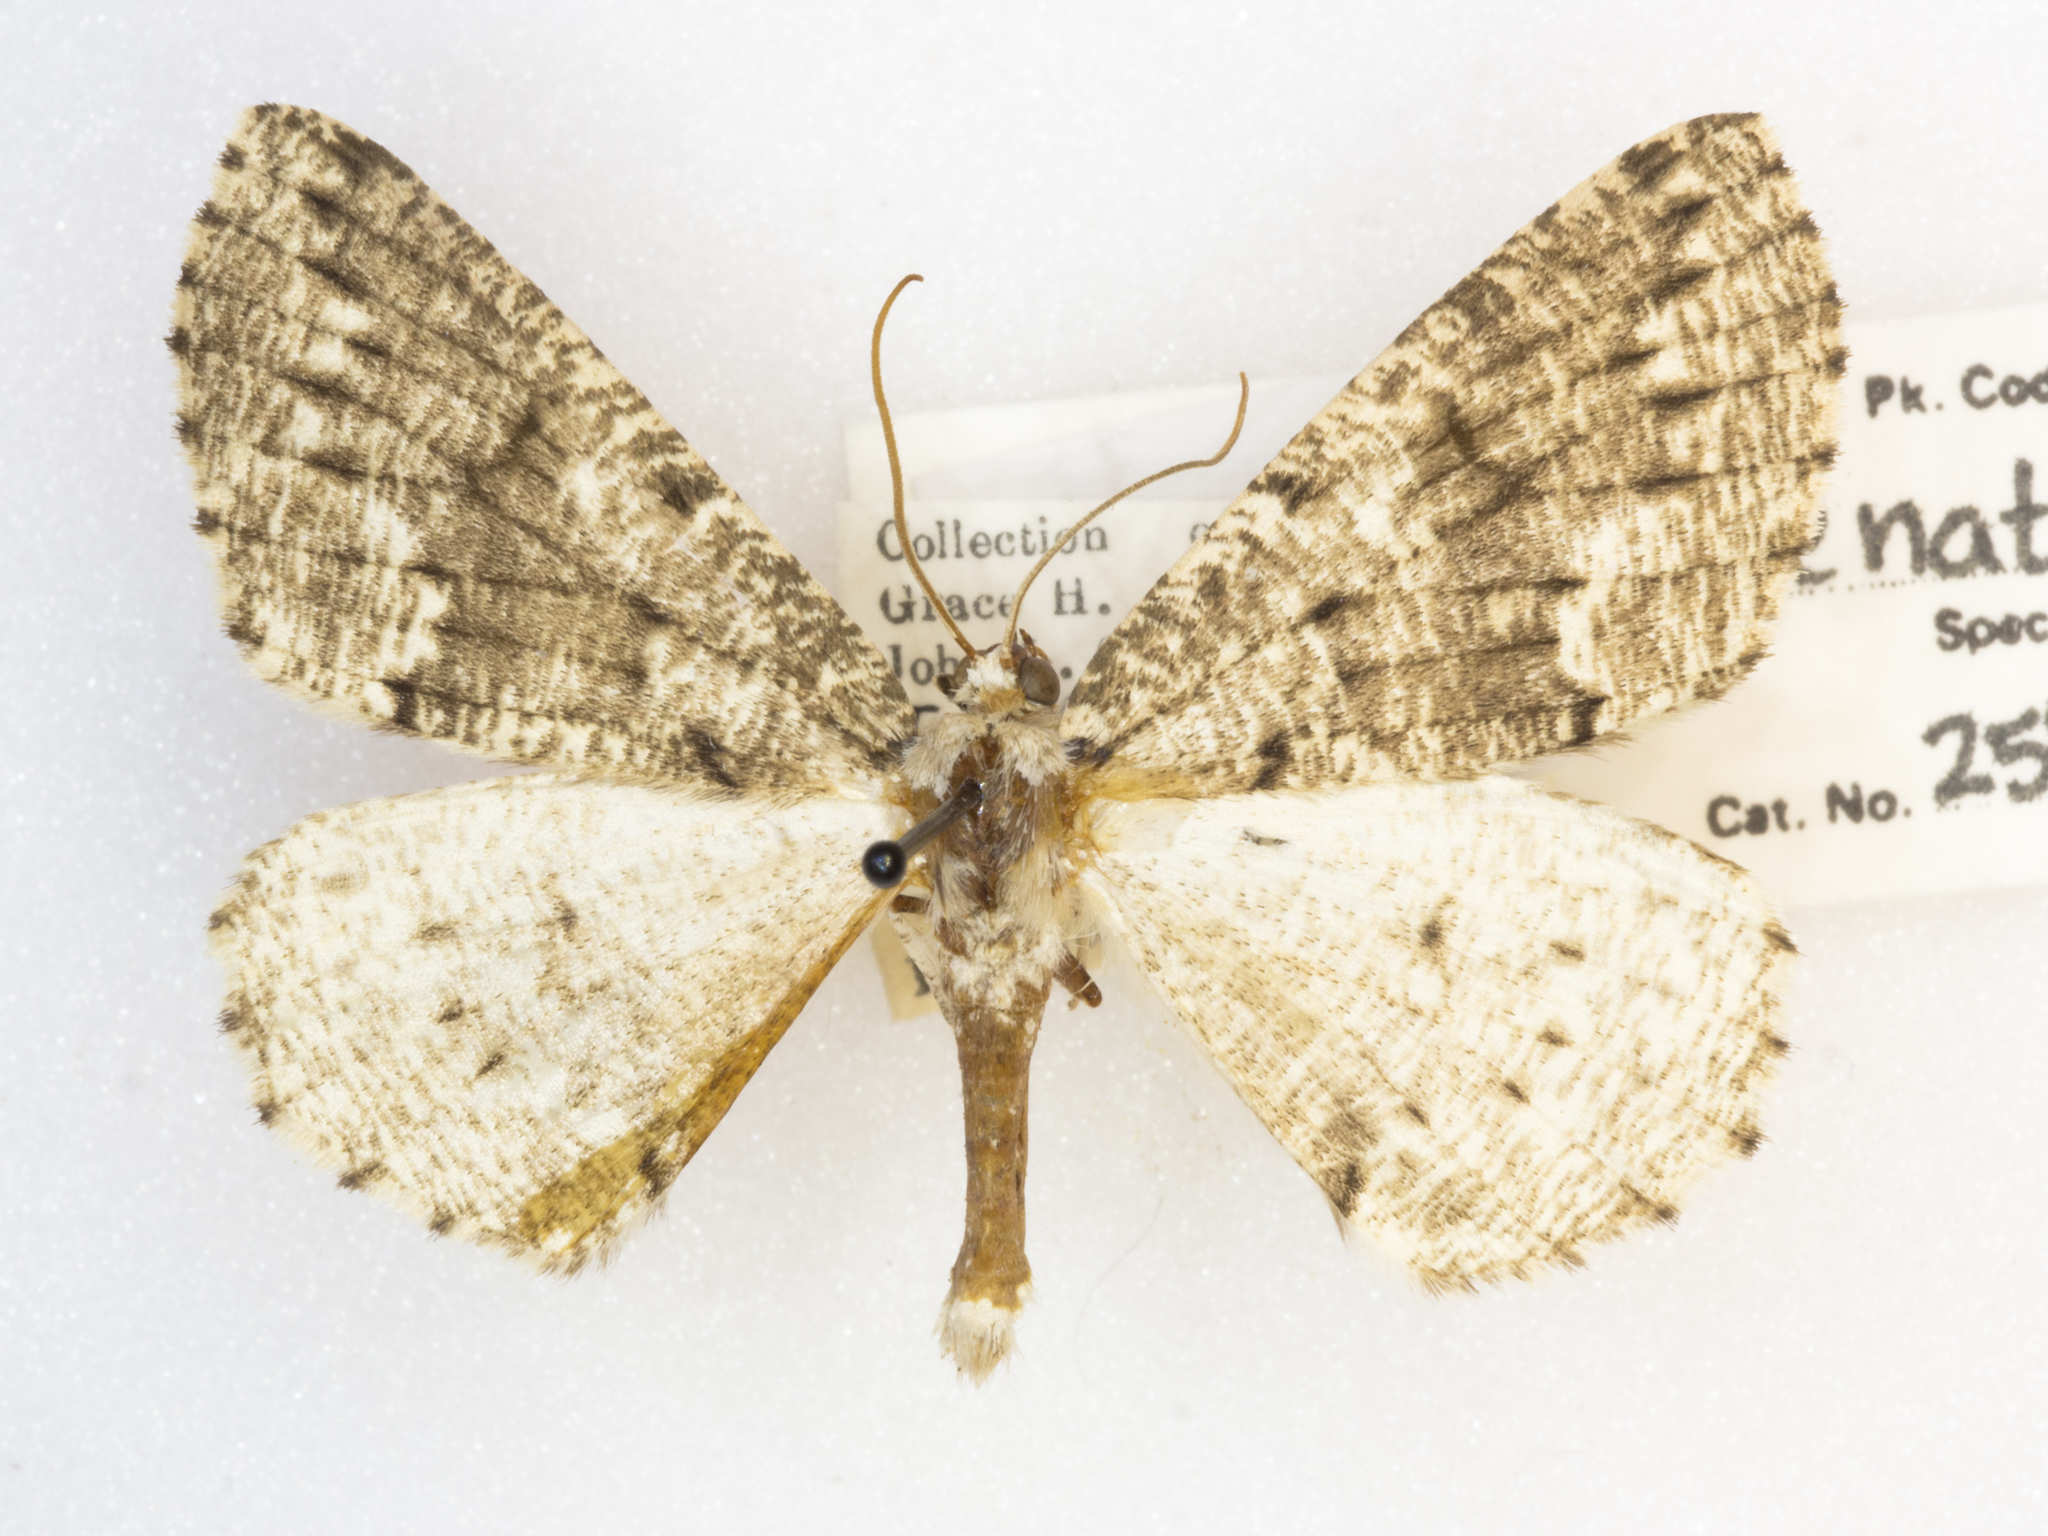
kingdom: Animalia
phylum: Arthropoda
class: Insecta
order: Lepidoptera
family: Geometridae
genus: Sabulodes
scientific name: Sabulodes
